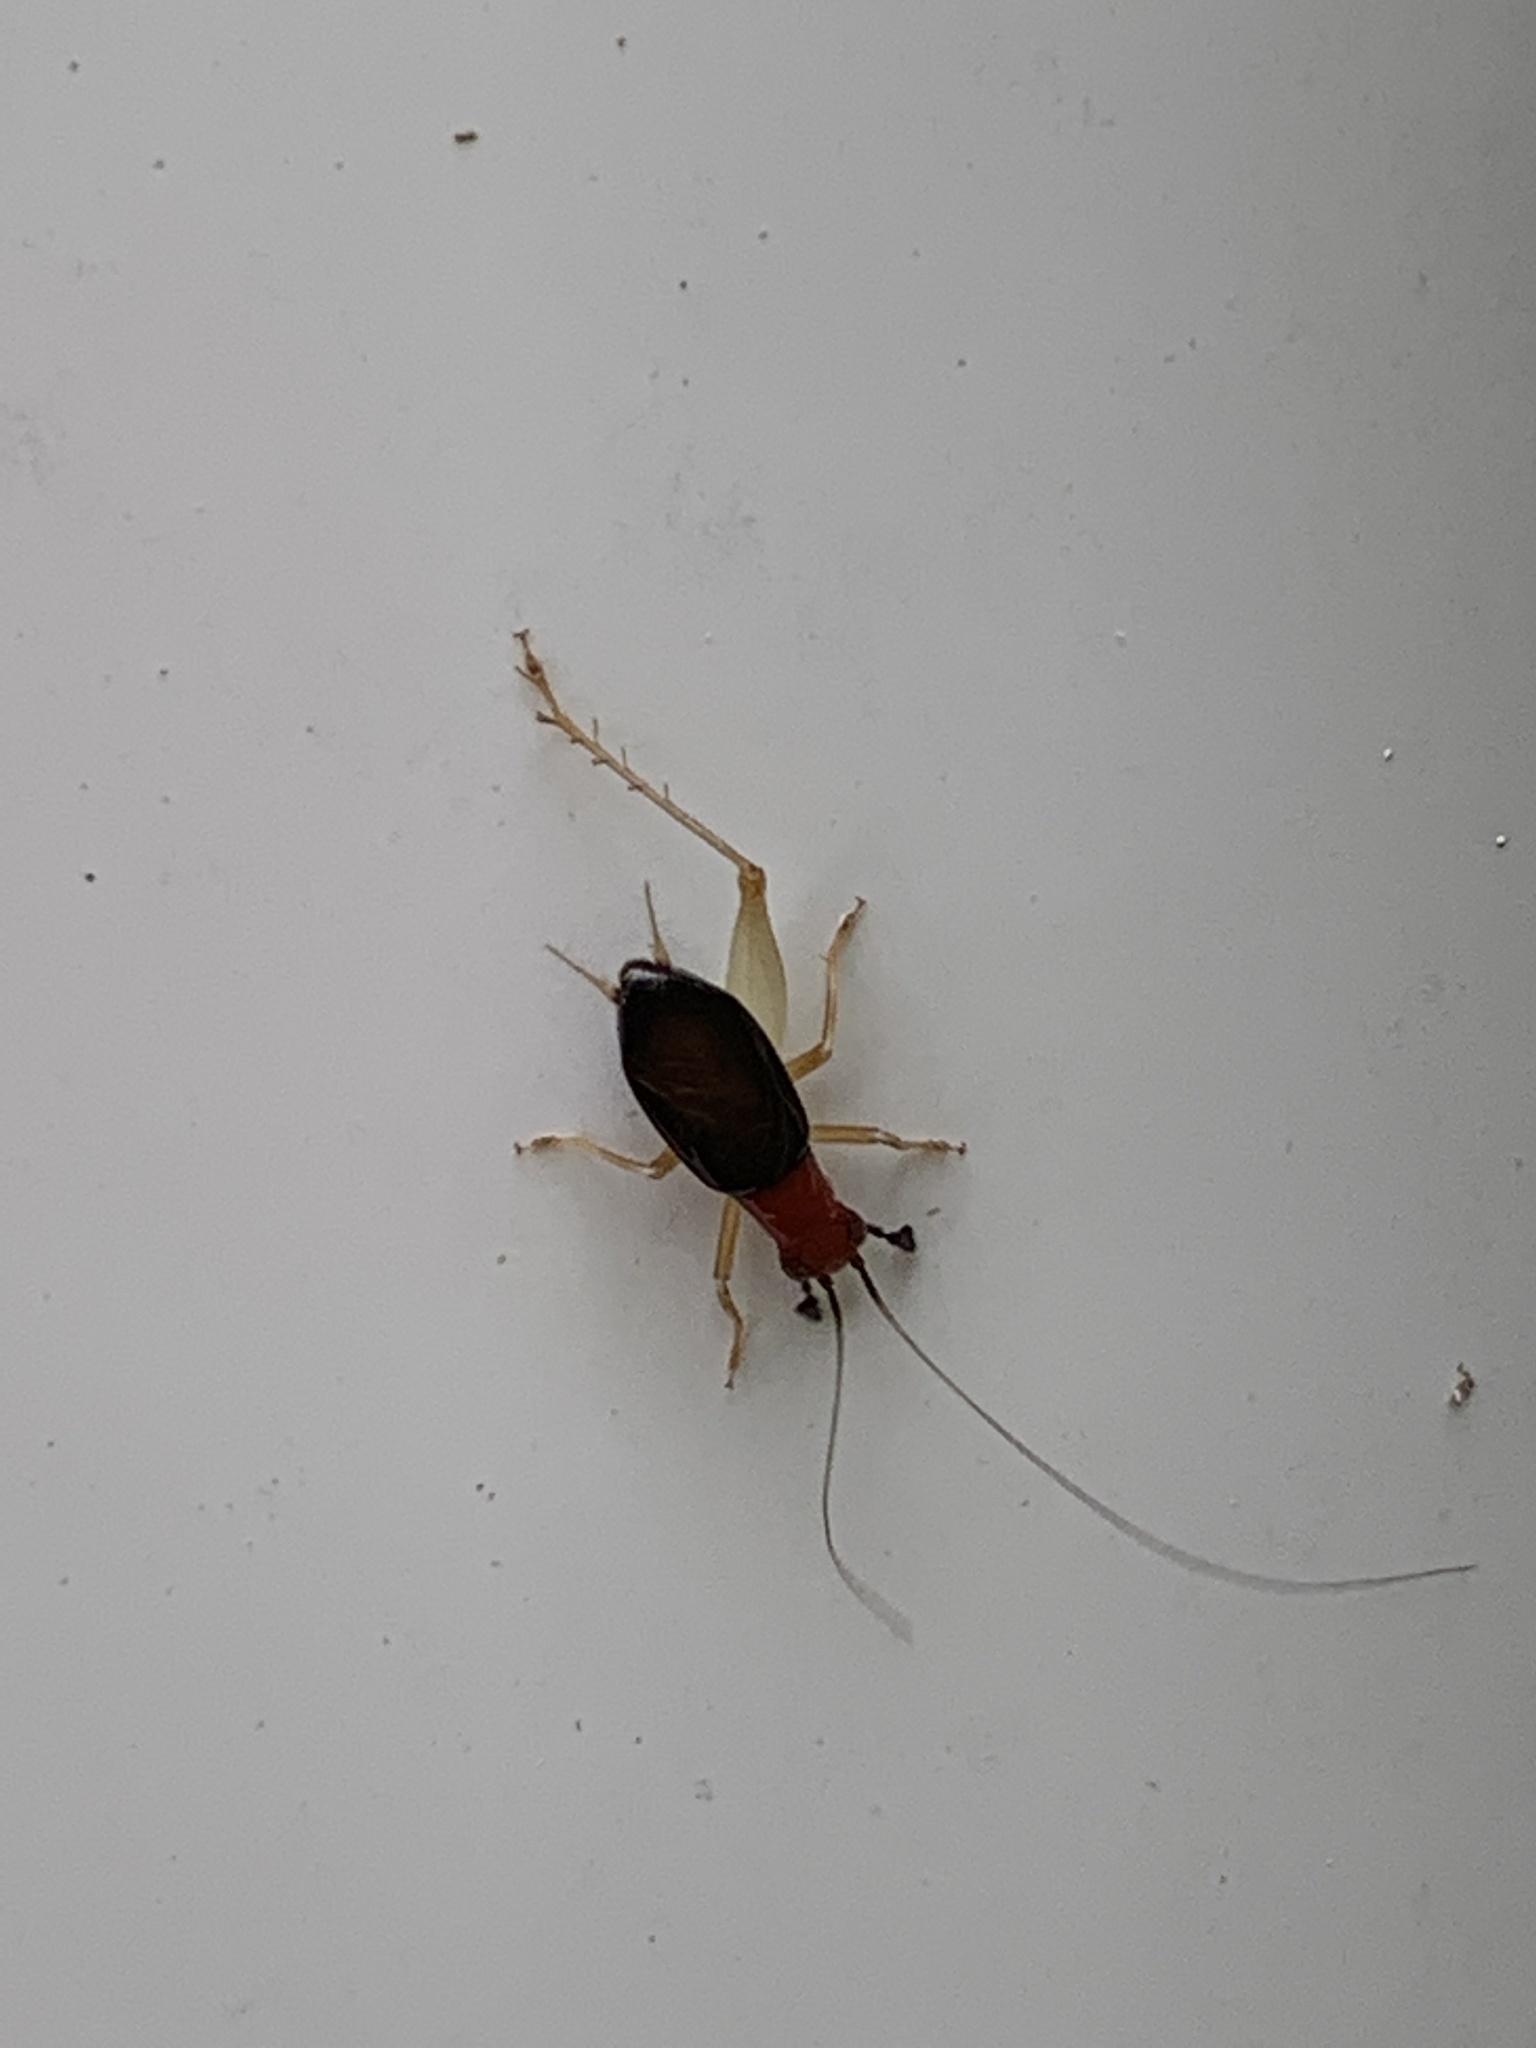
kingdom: Animalia
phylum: Arthropoda
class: Insecta
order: Orthoptera
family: Trigonidiidae
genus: Phyllopalpus
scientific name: Phyllopalpus pulchellus
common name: Handsome trig
